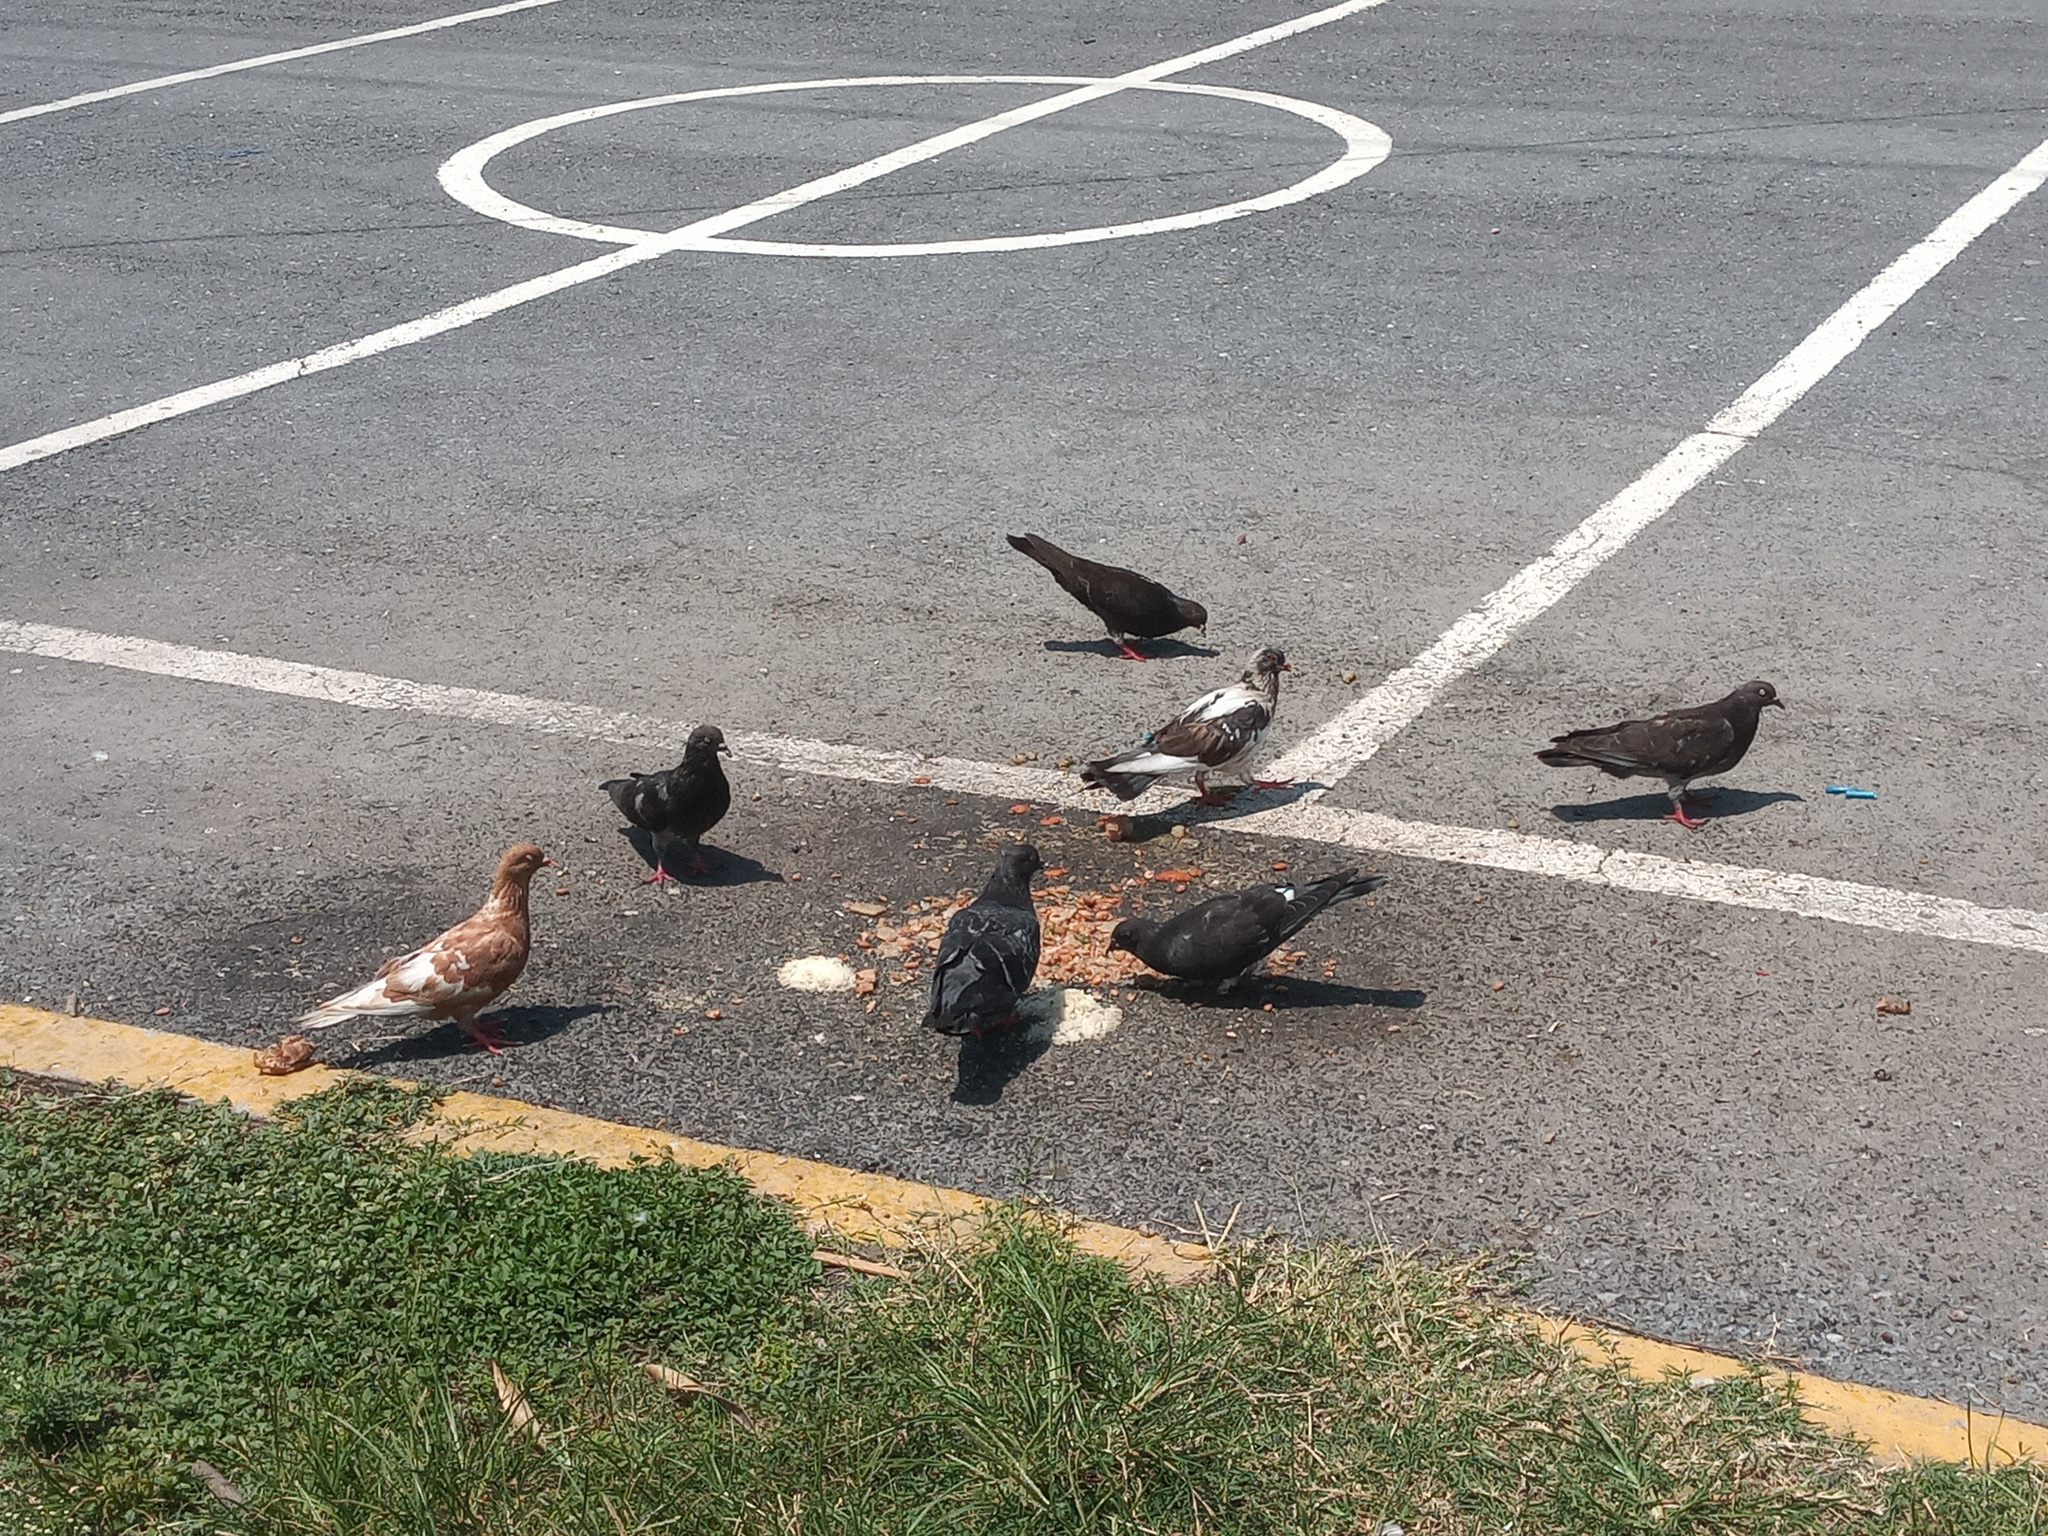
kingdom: Animalia
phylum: Chordata
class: Aves
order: Columbiformes
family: Columbidae
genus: Columba
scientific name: Columba livia
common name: Rock pigeon
